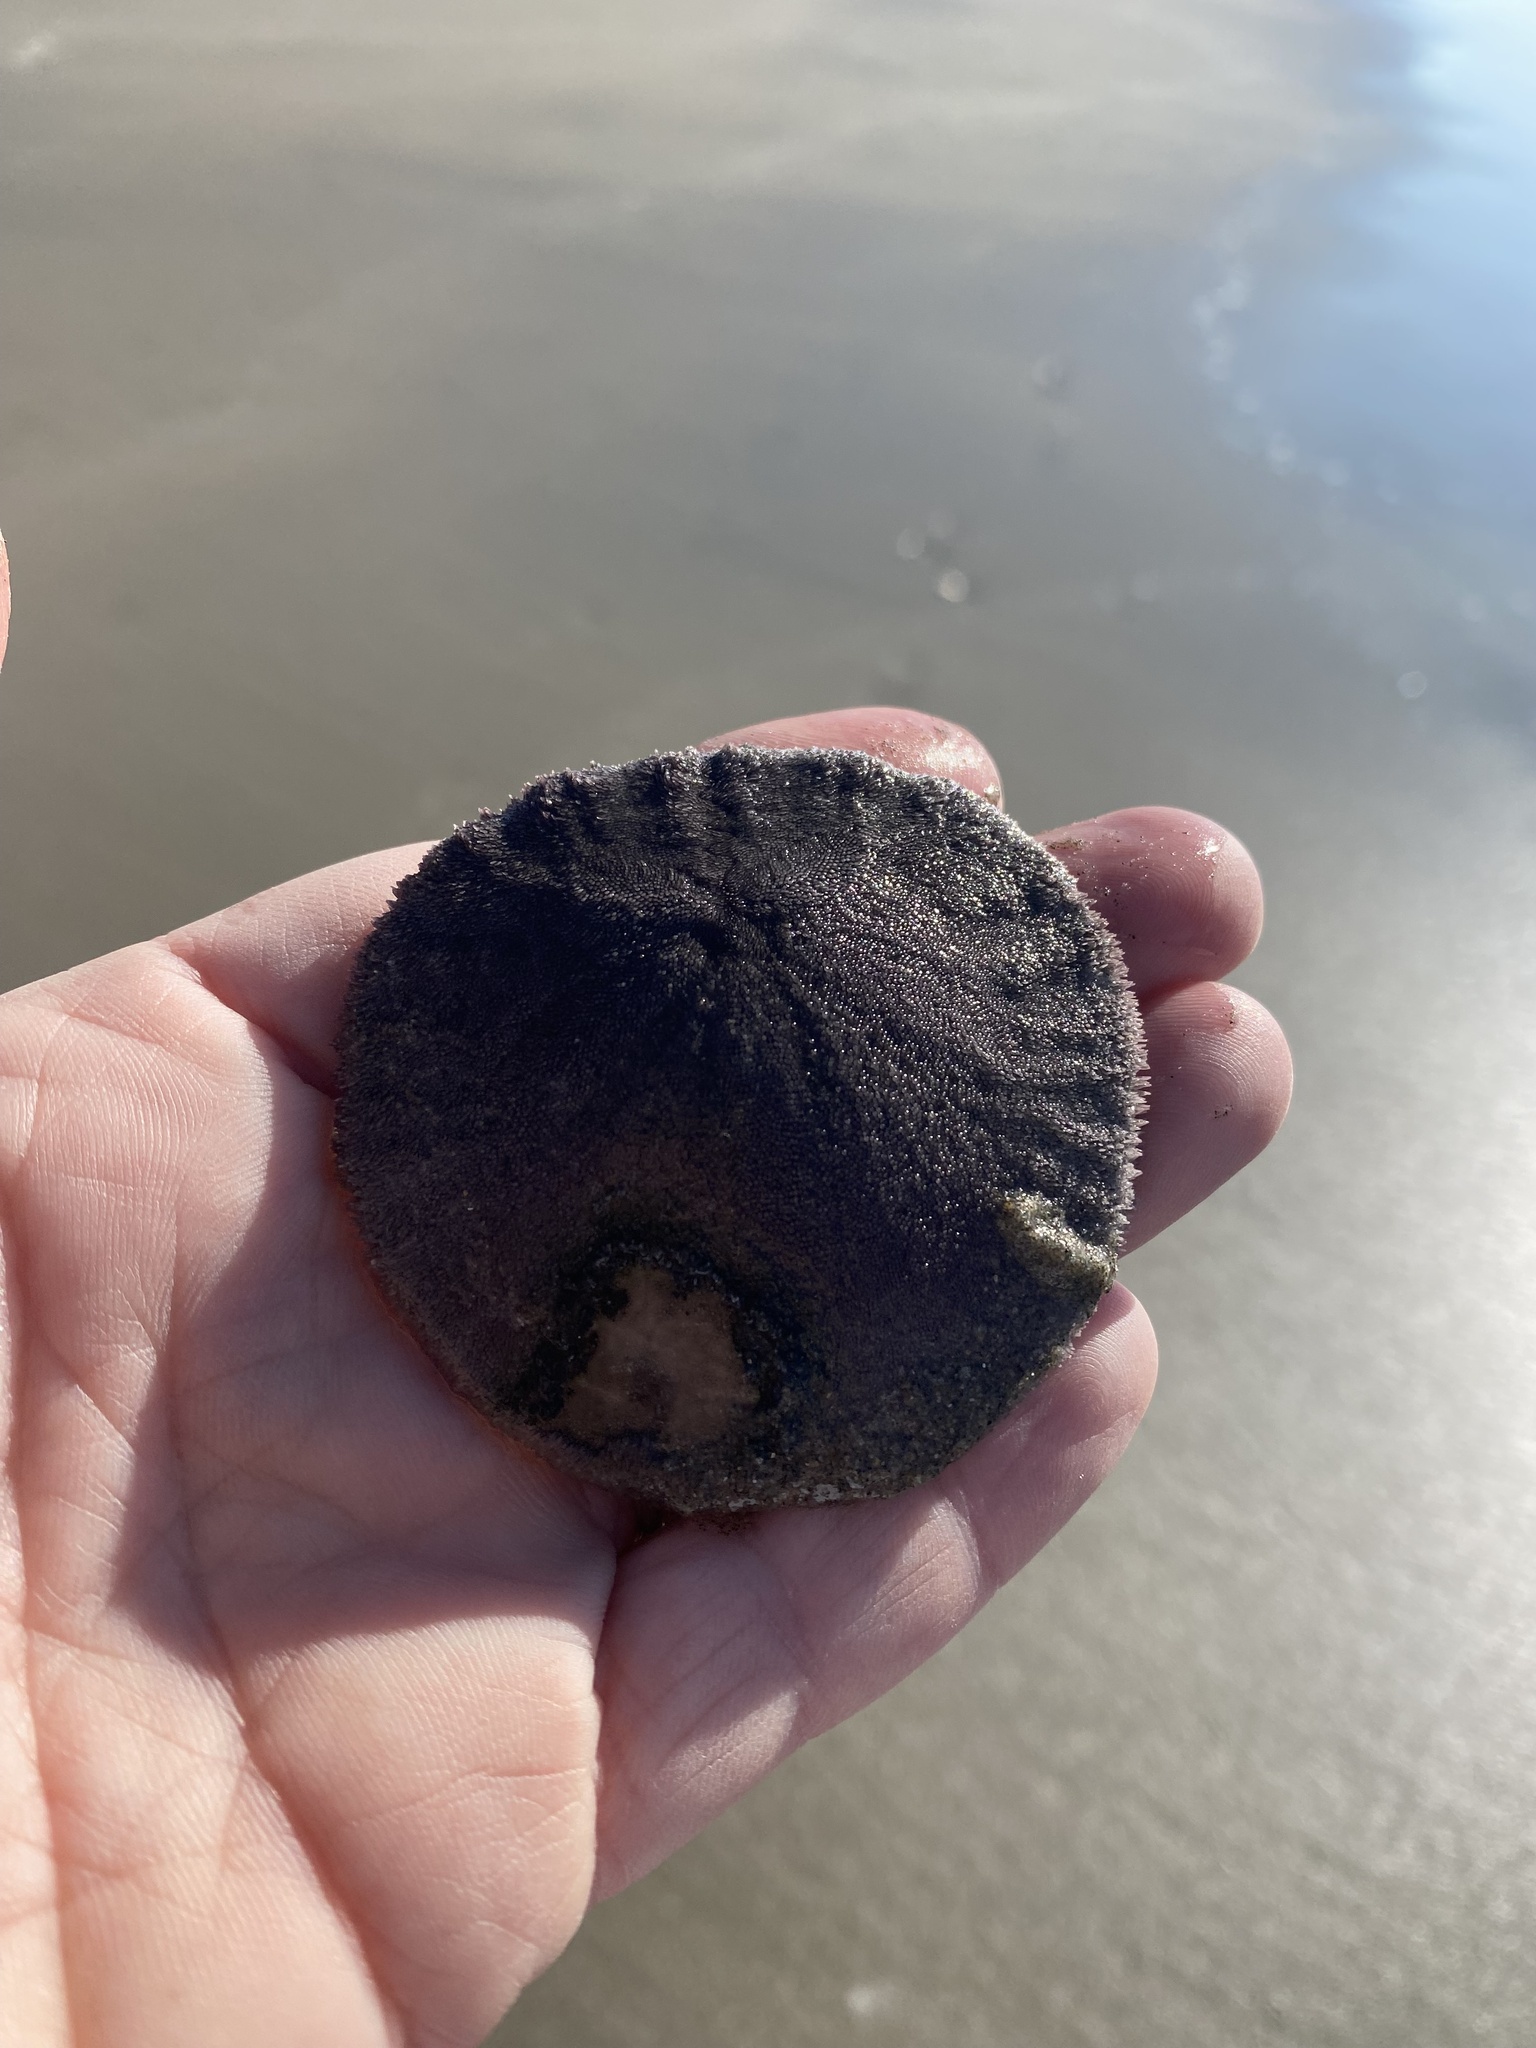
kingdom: Animalia
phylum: Echinodermata
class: Echinoidea
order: Echinolampadacea
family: Dendrasteridae
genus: Dendraster
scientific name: Dendraster excentricus
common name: Eccentric sand dollar sea urchin
